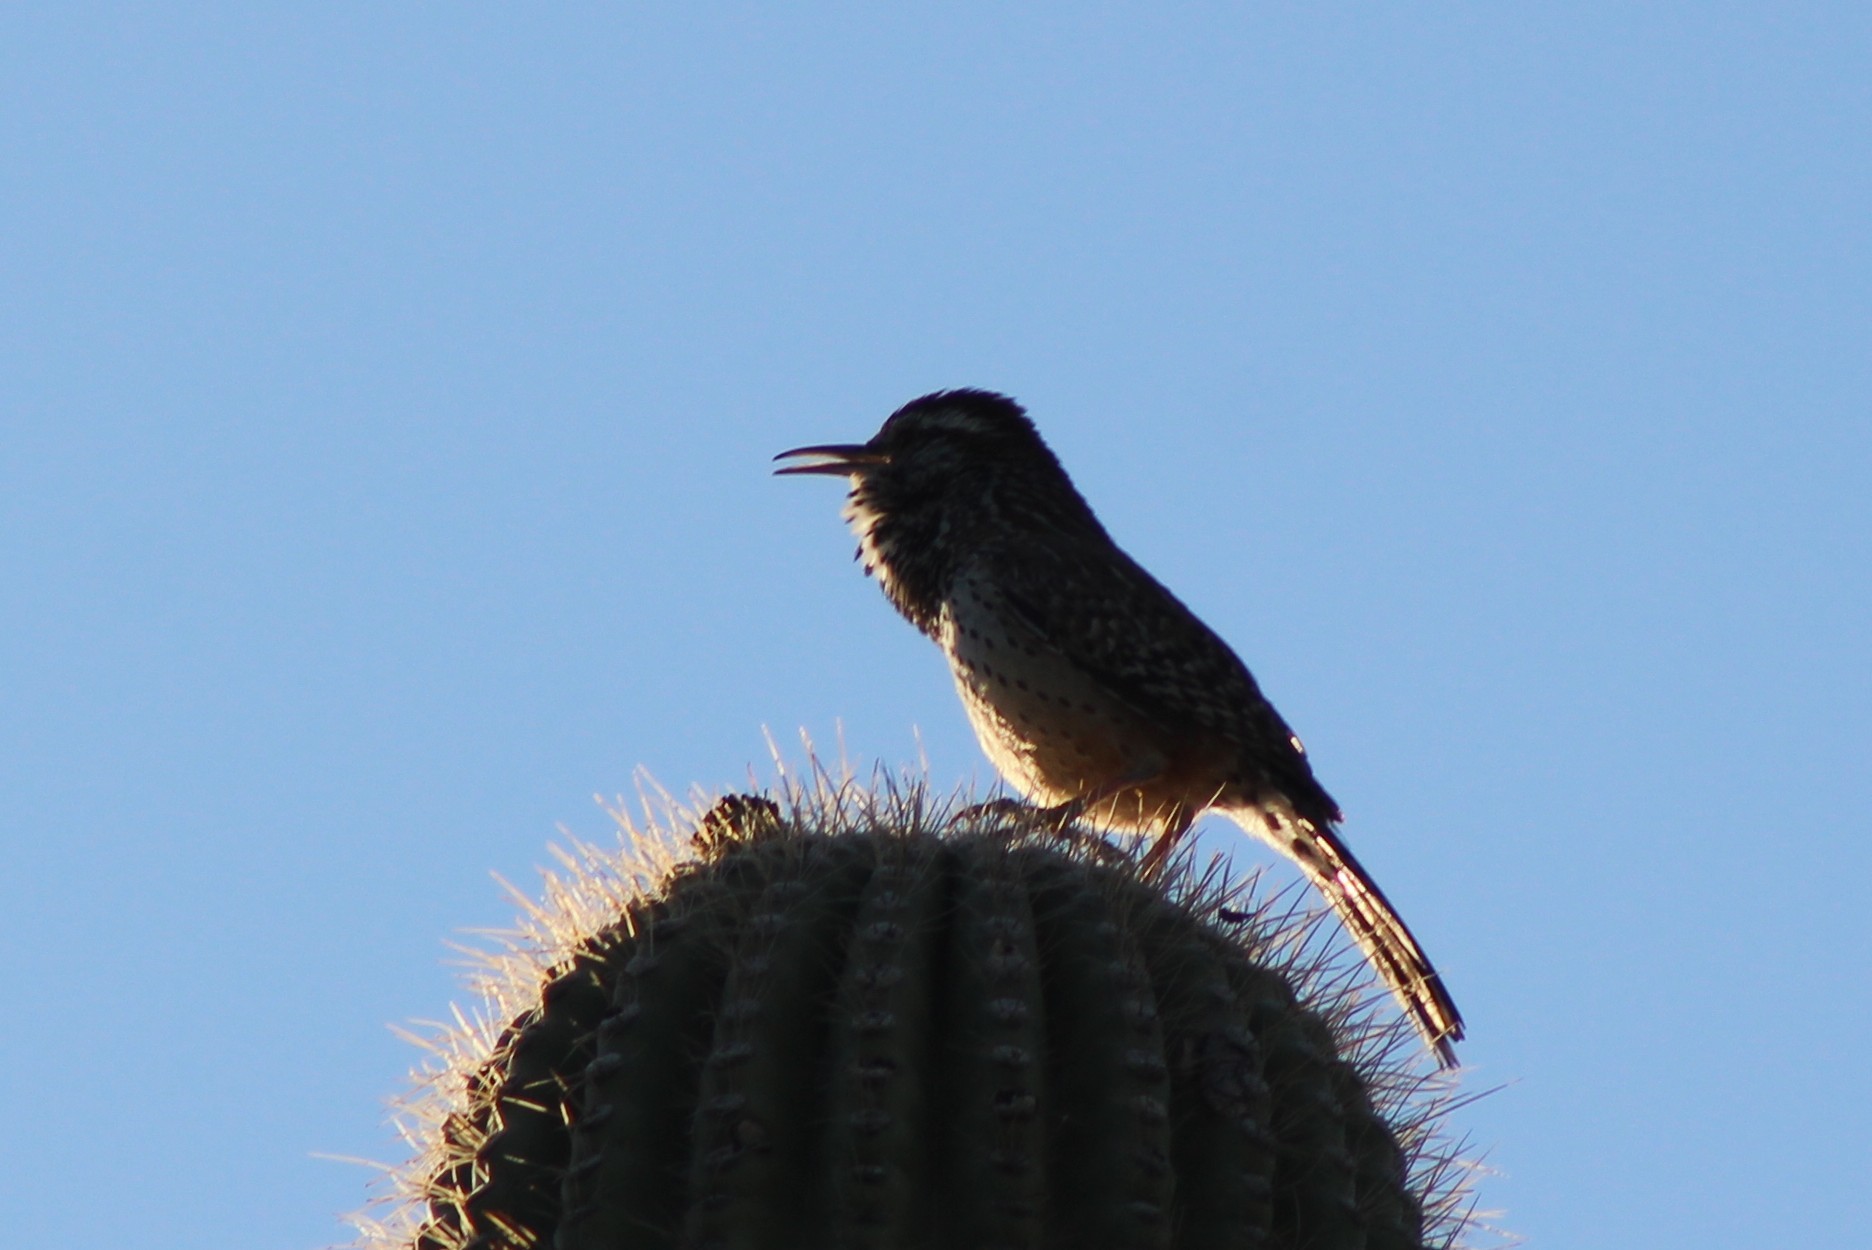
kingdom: Animalia
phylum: Chordata
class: Aves
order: Passeriformes
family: Troglodytidae
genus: Campylorhynchus
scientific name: Campylorhynchus brunneicapillus
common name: Cactus wren
